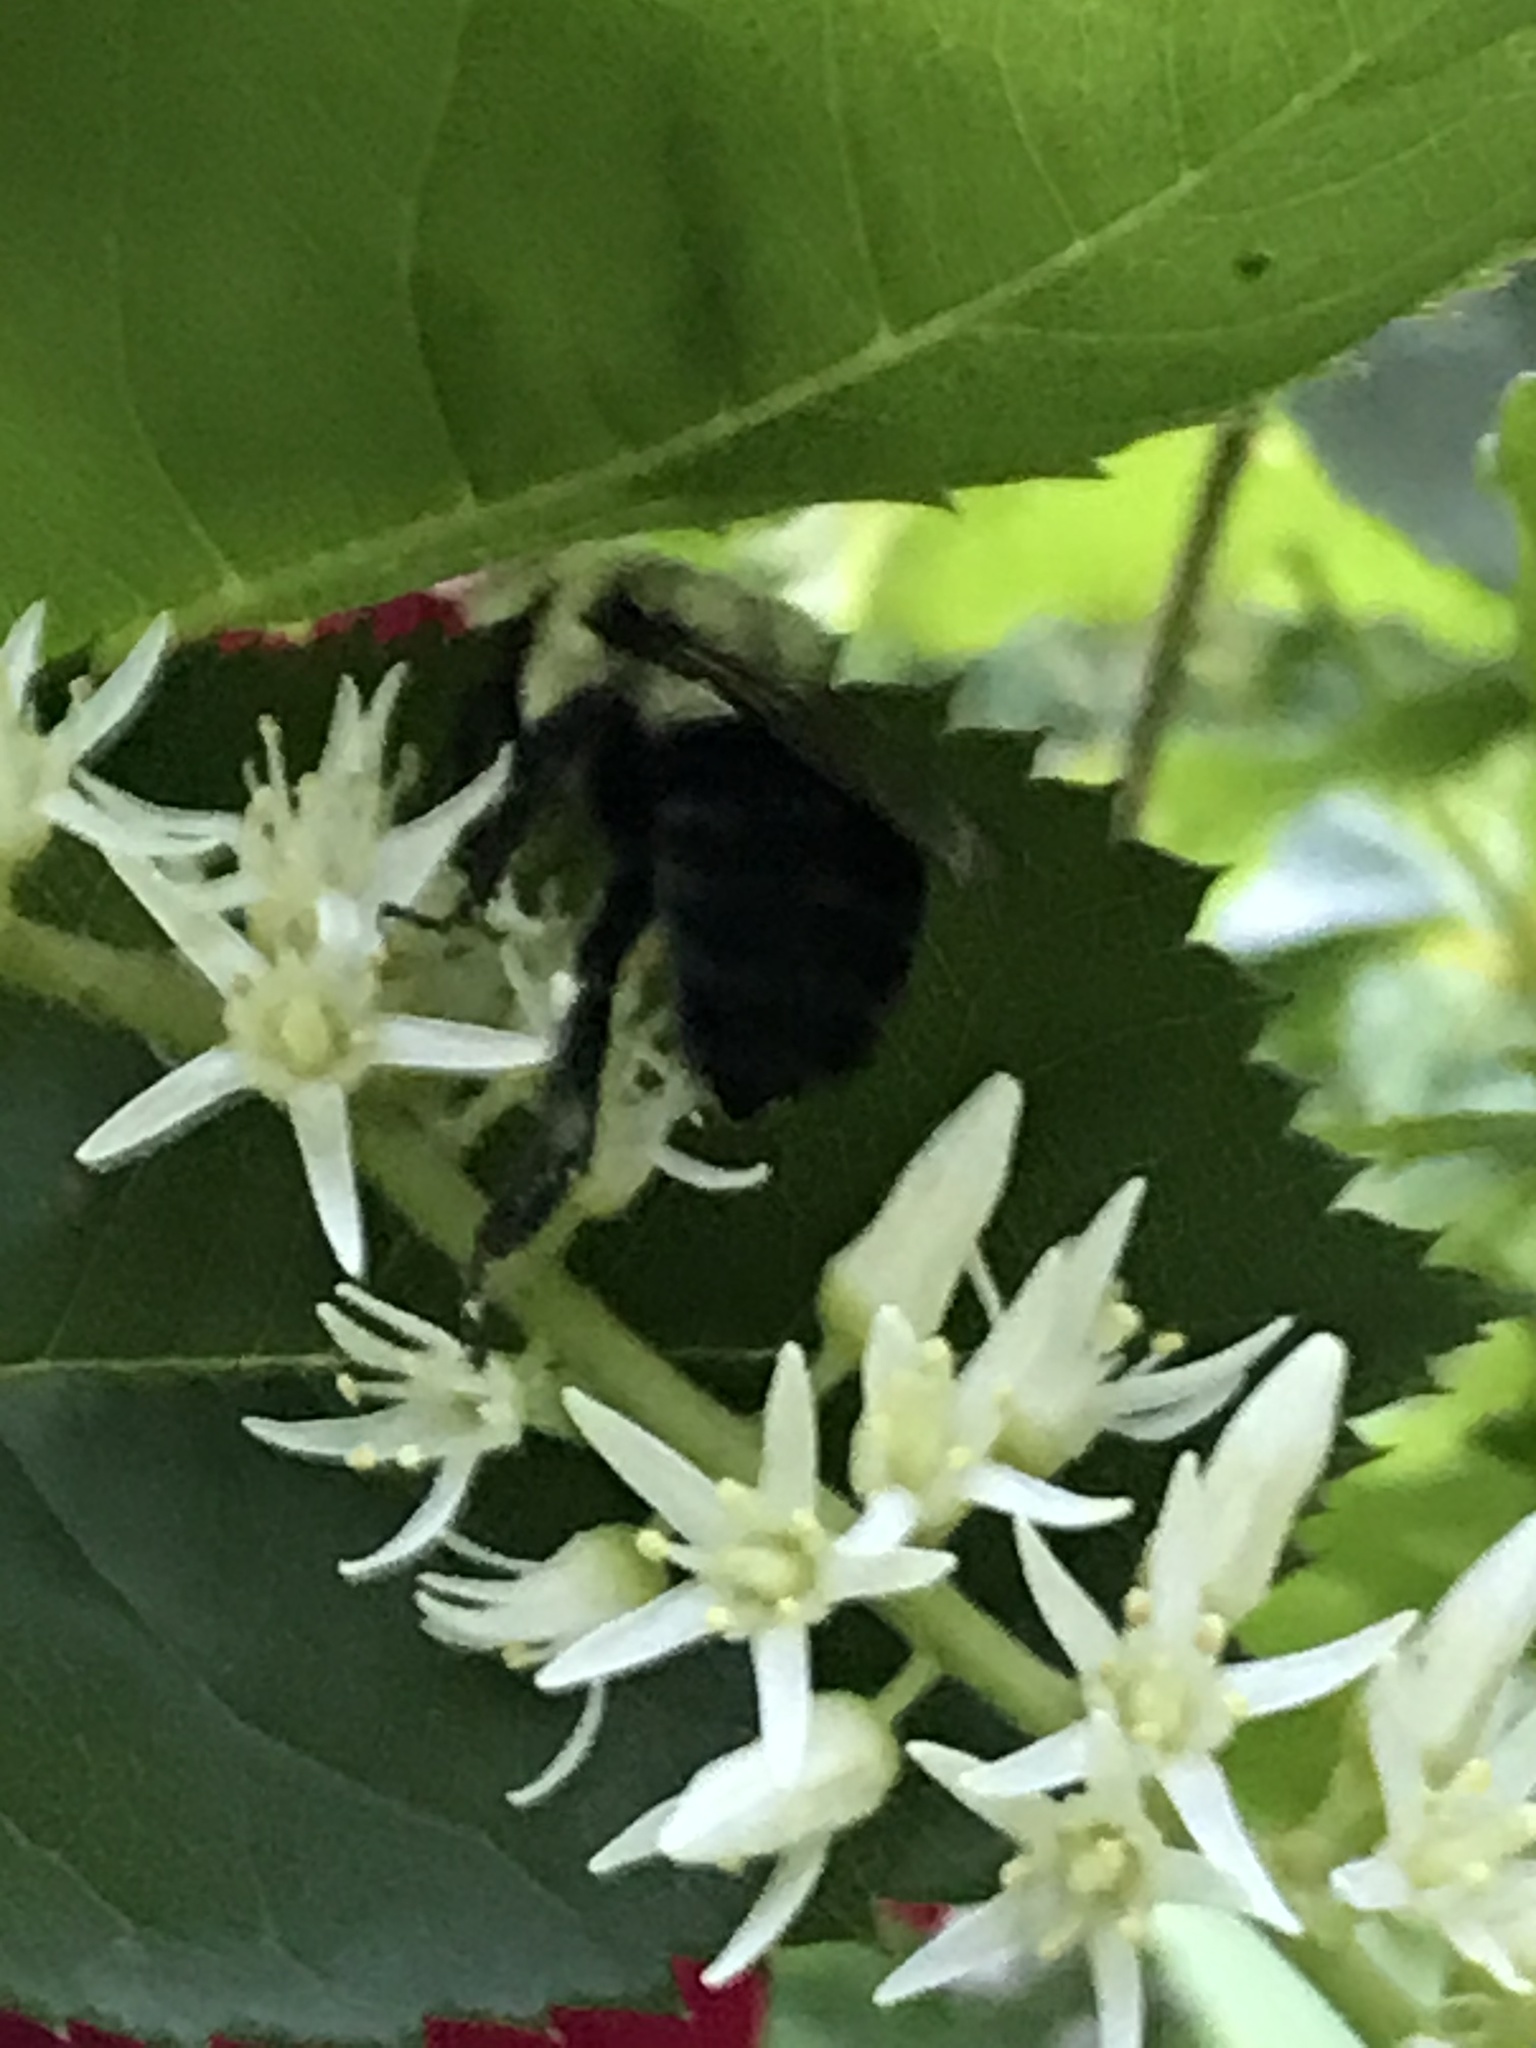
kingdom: Animalia
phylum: Arthropoda
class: Insecta
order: Hymenoptera
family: Apidae
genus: Bombus
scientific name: Bombus impatiens
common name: Common eastern bumble bee
